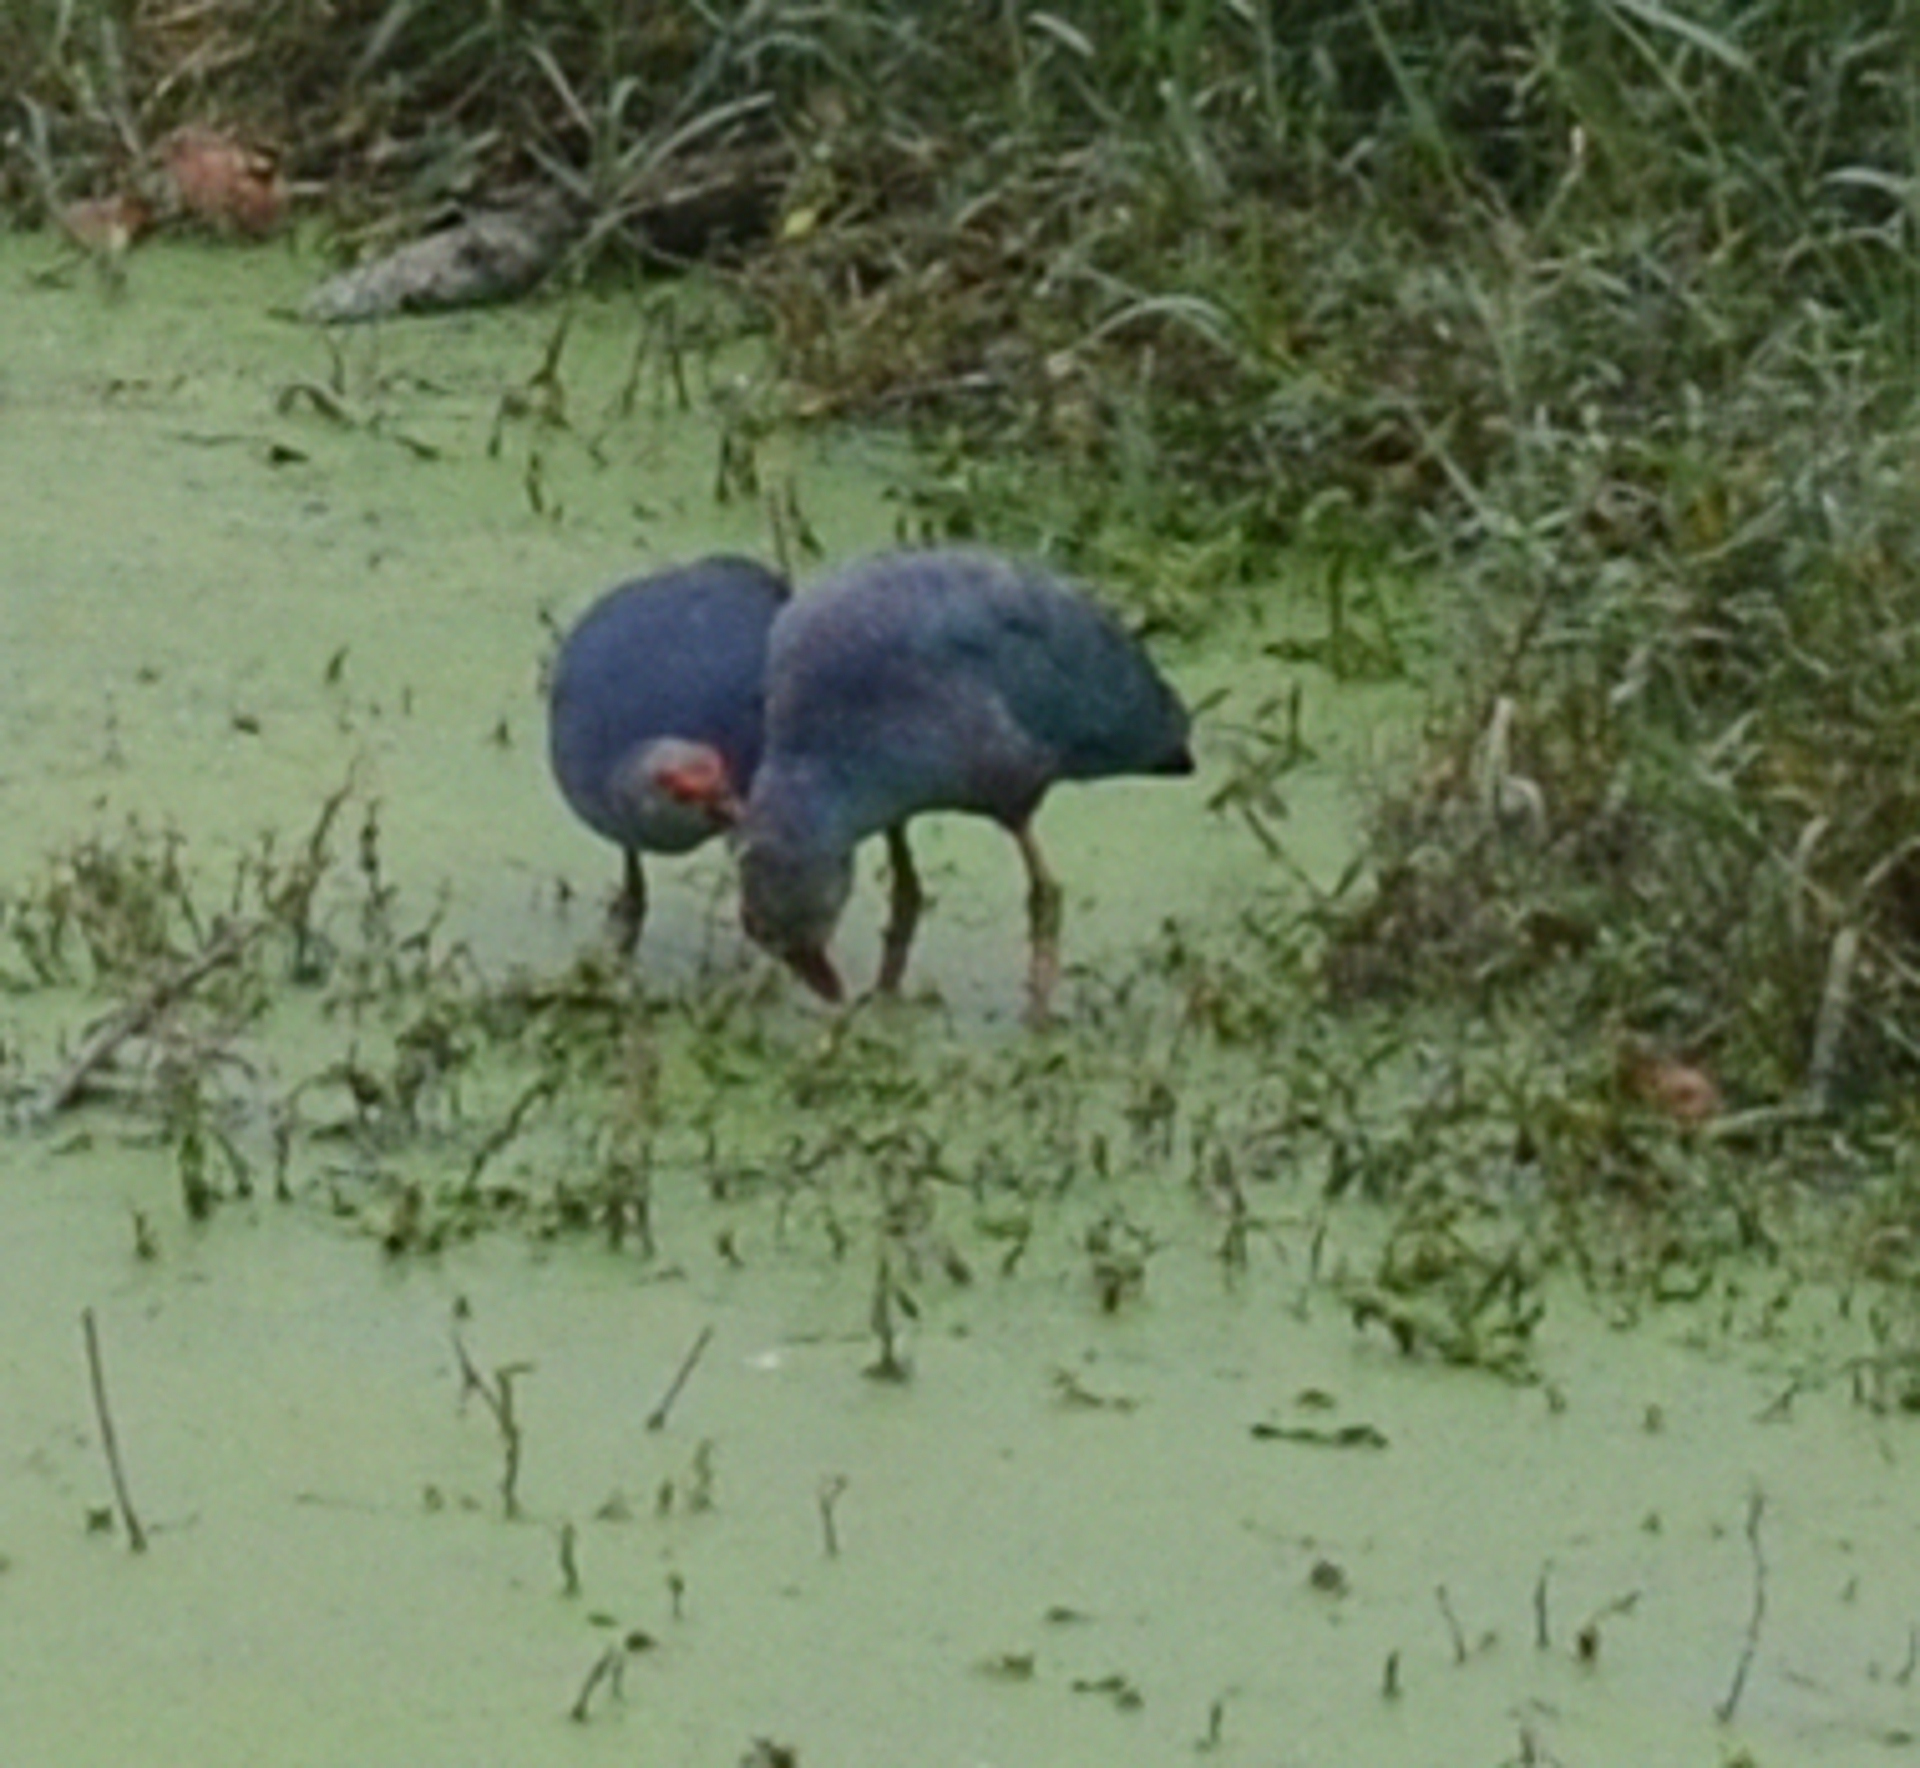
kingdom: Animalia
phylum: Chordata
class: Aves
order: Gruiformes
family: Rallidae
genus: Porphyrio
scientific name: Porphyrio porphyrio
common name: Purple swamphen
